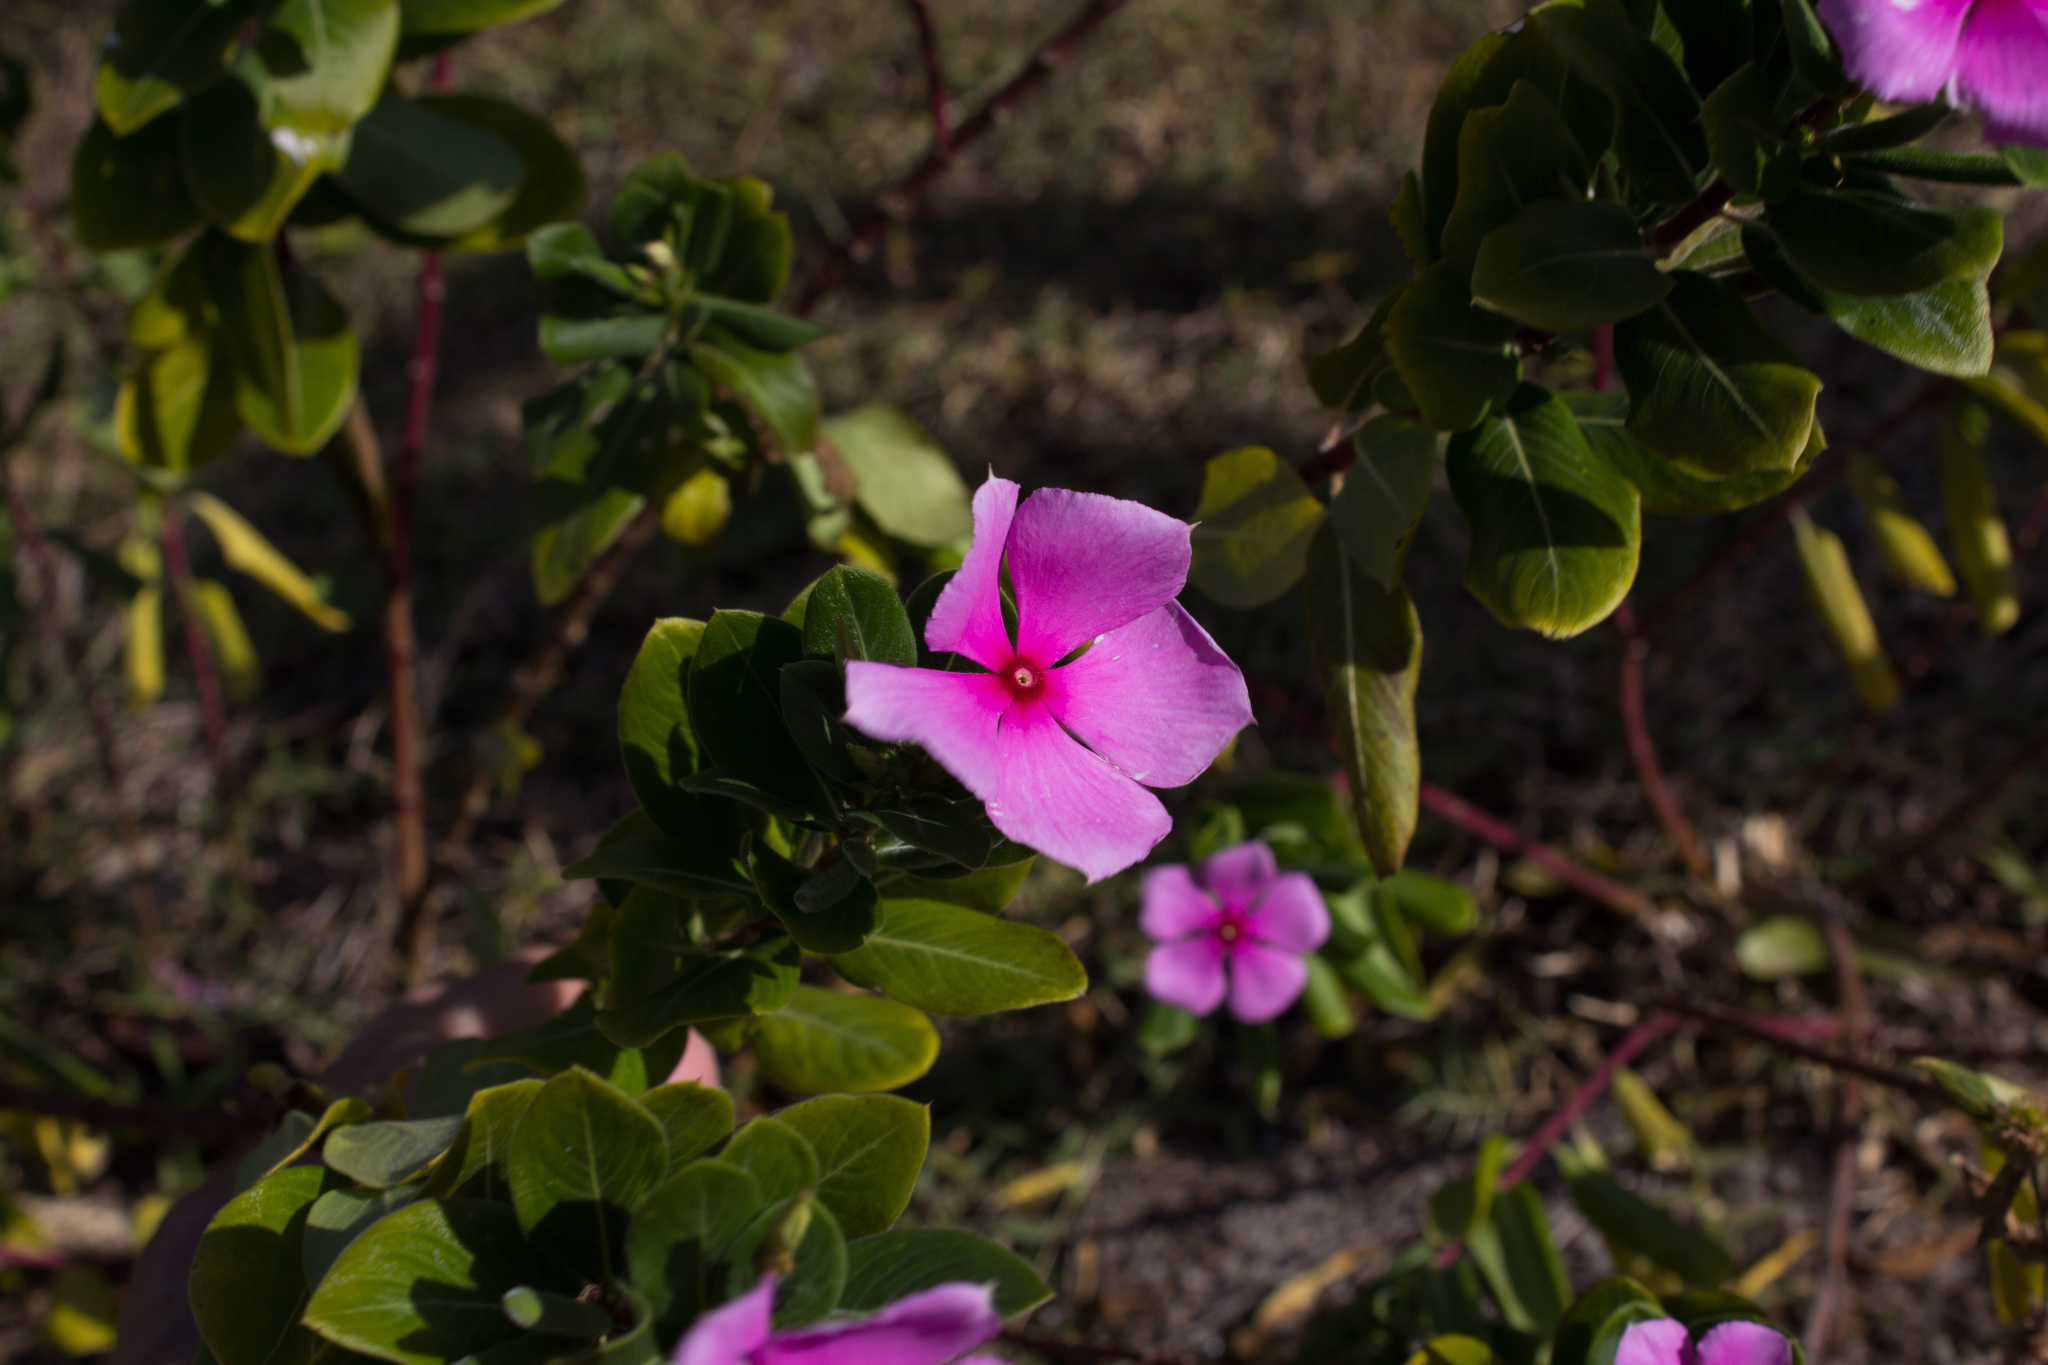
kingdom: Plantae
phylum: Tracheophyta
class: Magnoliopsida
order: Gentianales
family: Apocynaceae
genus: Catharanthus
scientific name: Catharanthus roseus
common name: Madagascar periwinkle
